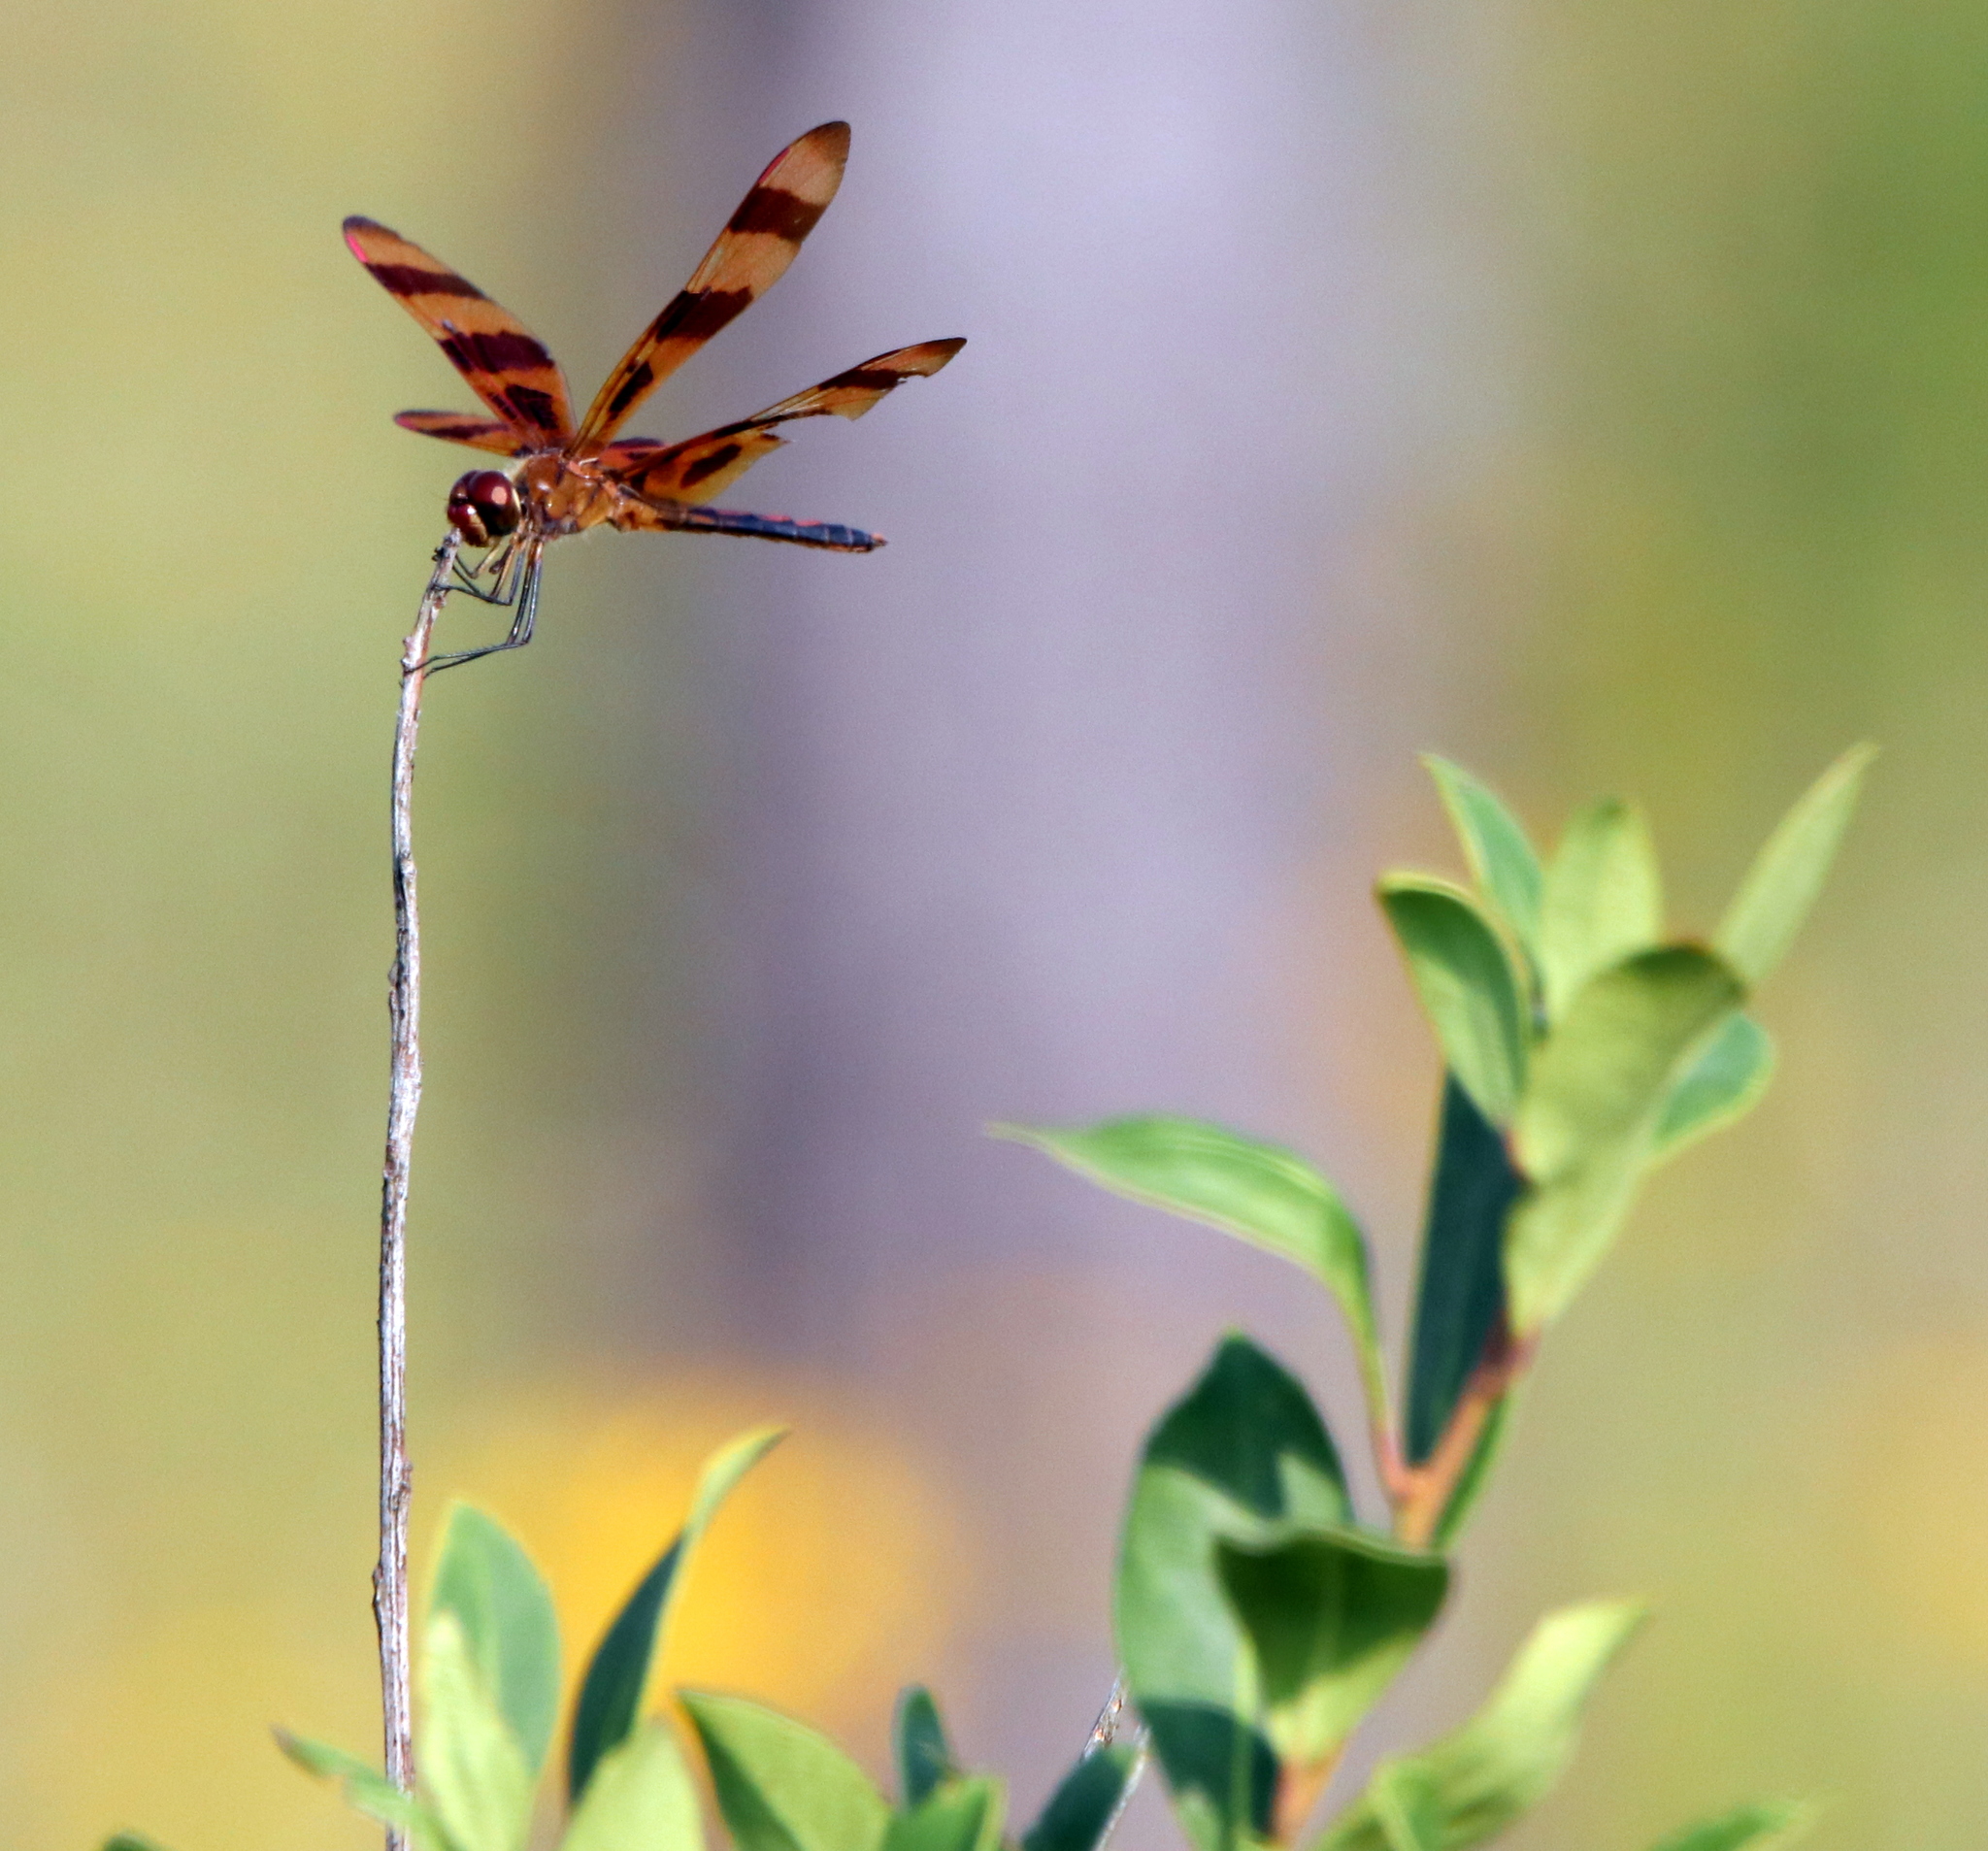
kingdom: Animalia
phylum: Arthropoda
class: Insecta
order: Odonata
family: Libellulidae
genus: Celithemis
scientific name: Celithemis eponina
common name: Halloween pennant
